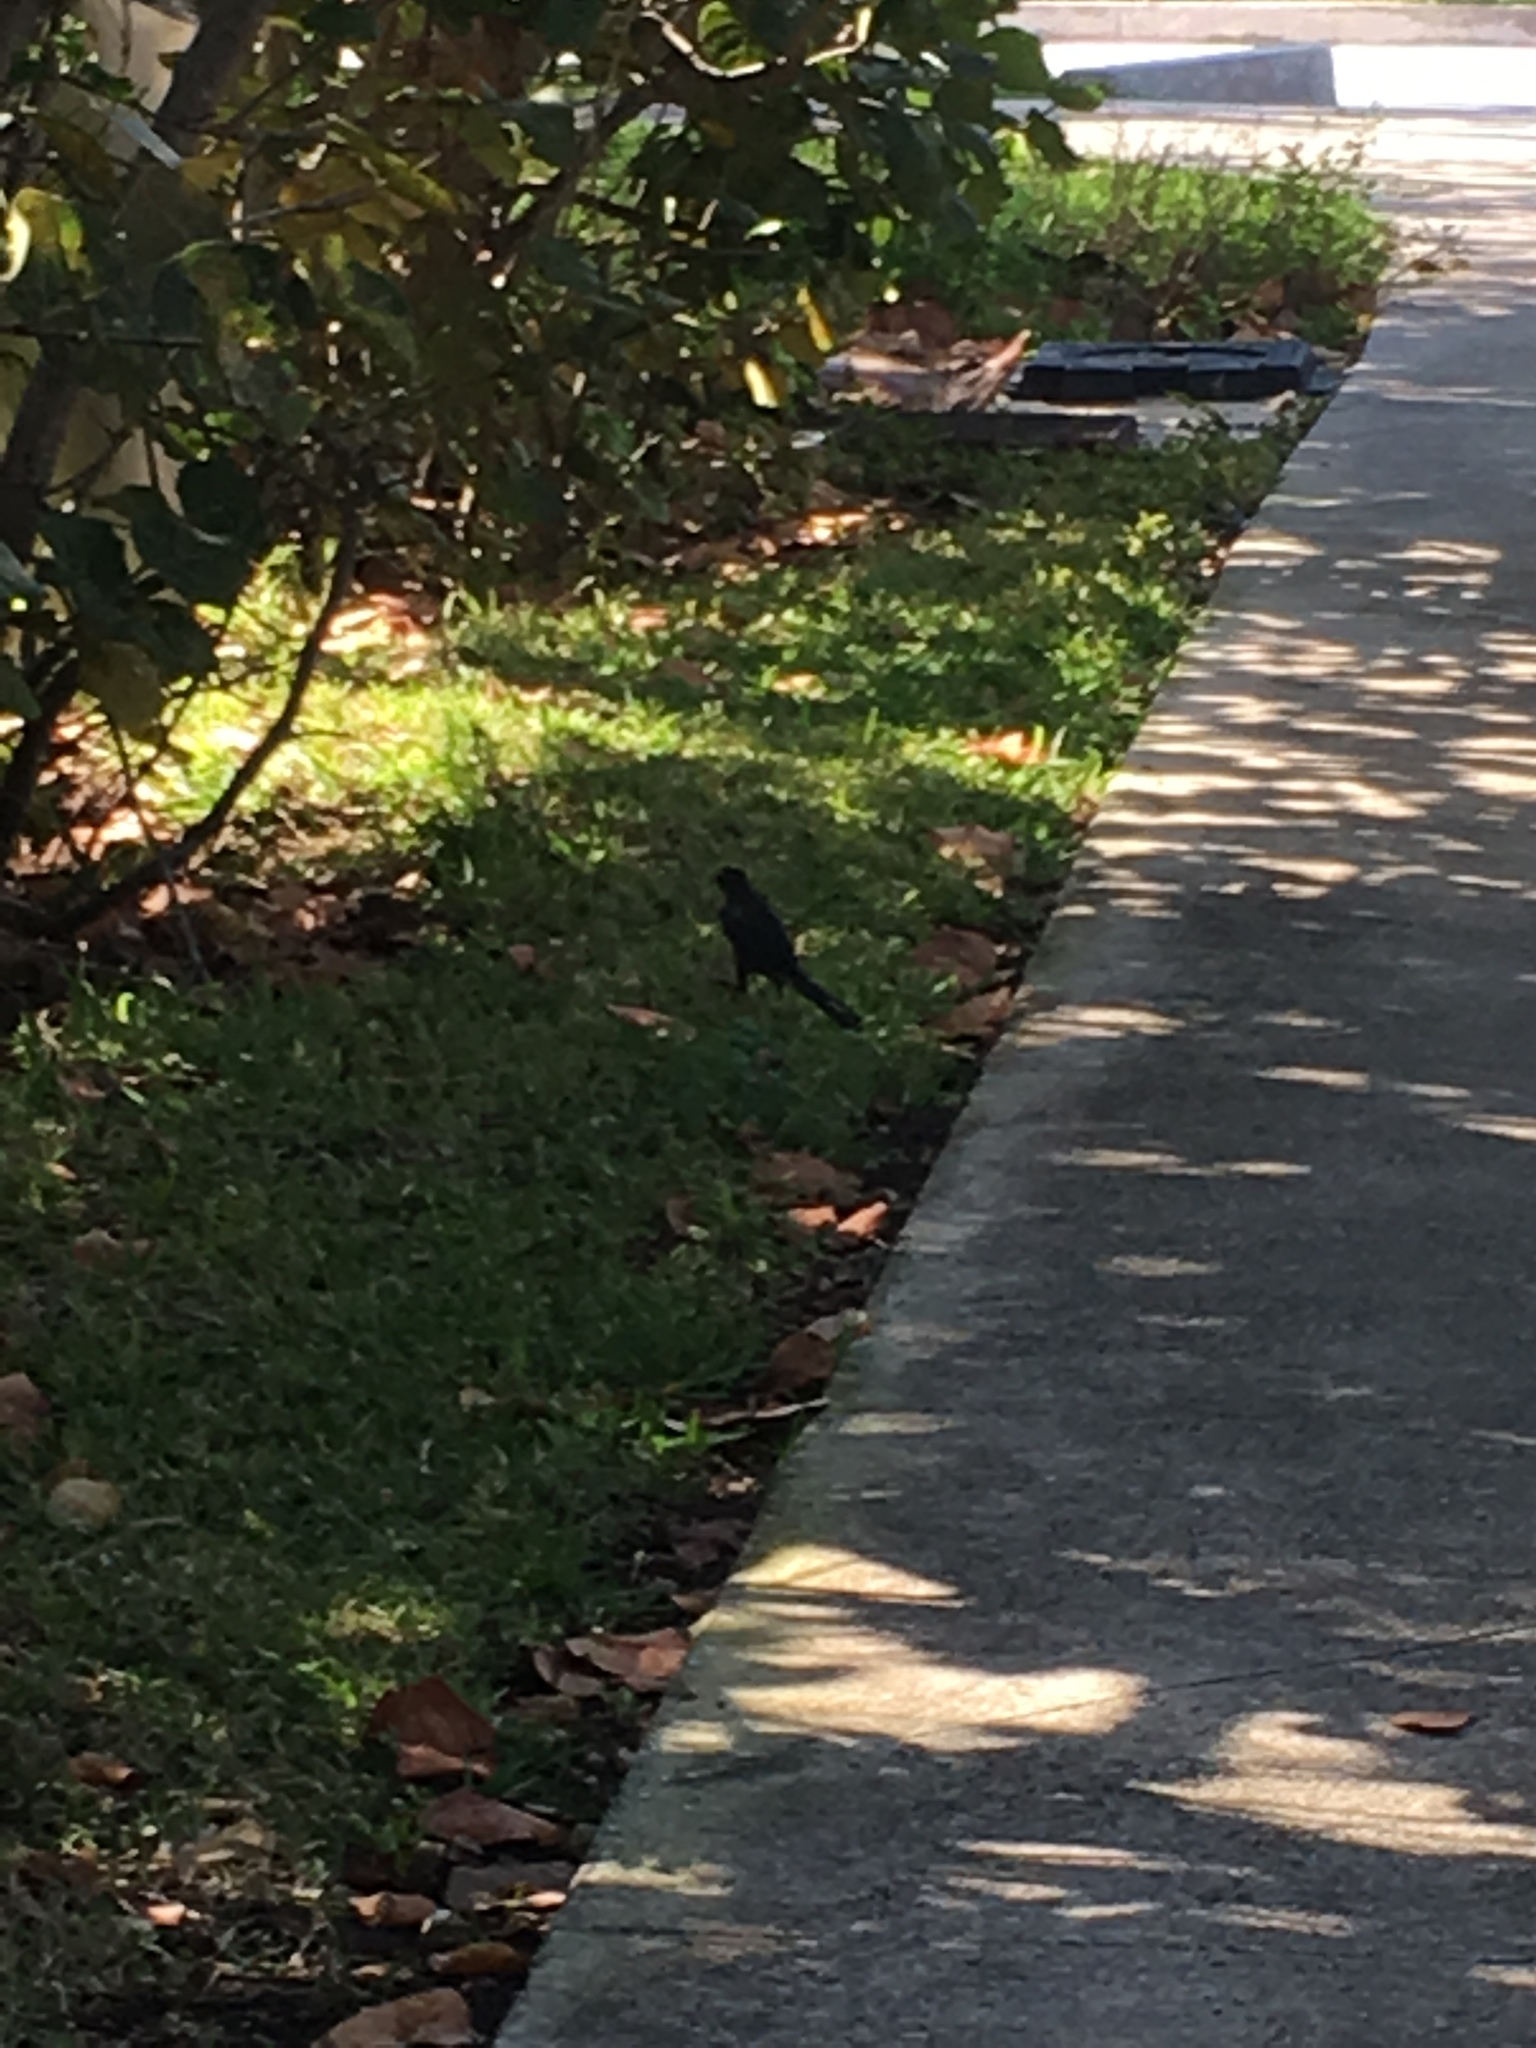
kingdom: Animalia
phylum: Chordata
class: Aves
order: Passeriformes
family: Icteridae
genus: Quiscalus
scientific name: Quiscalus mexicanus
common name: Great-tailed grackle
